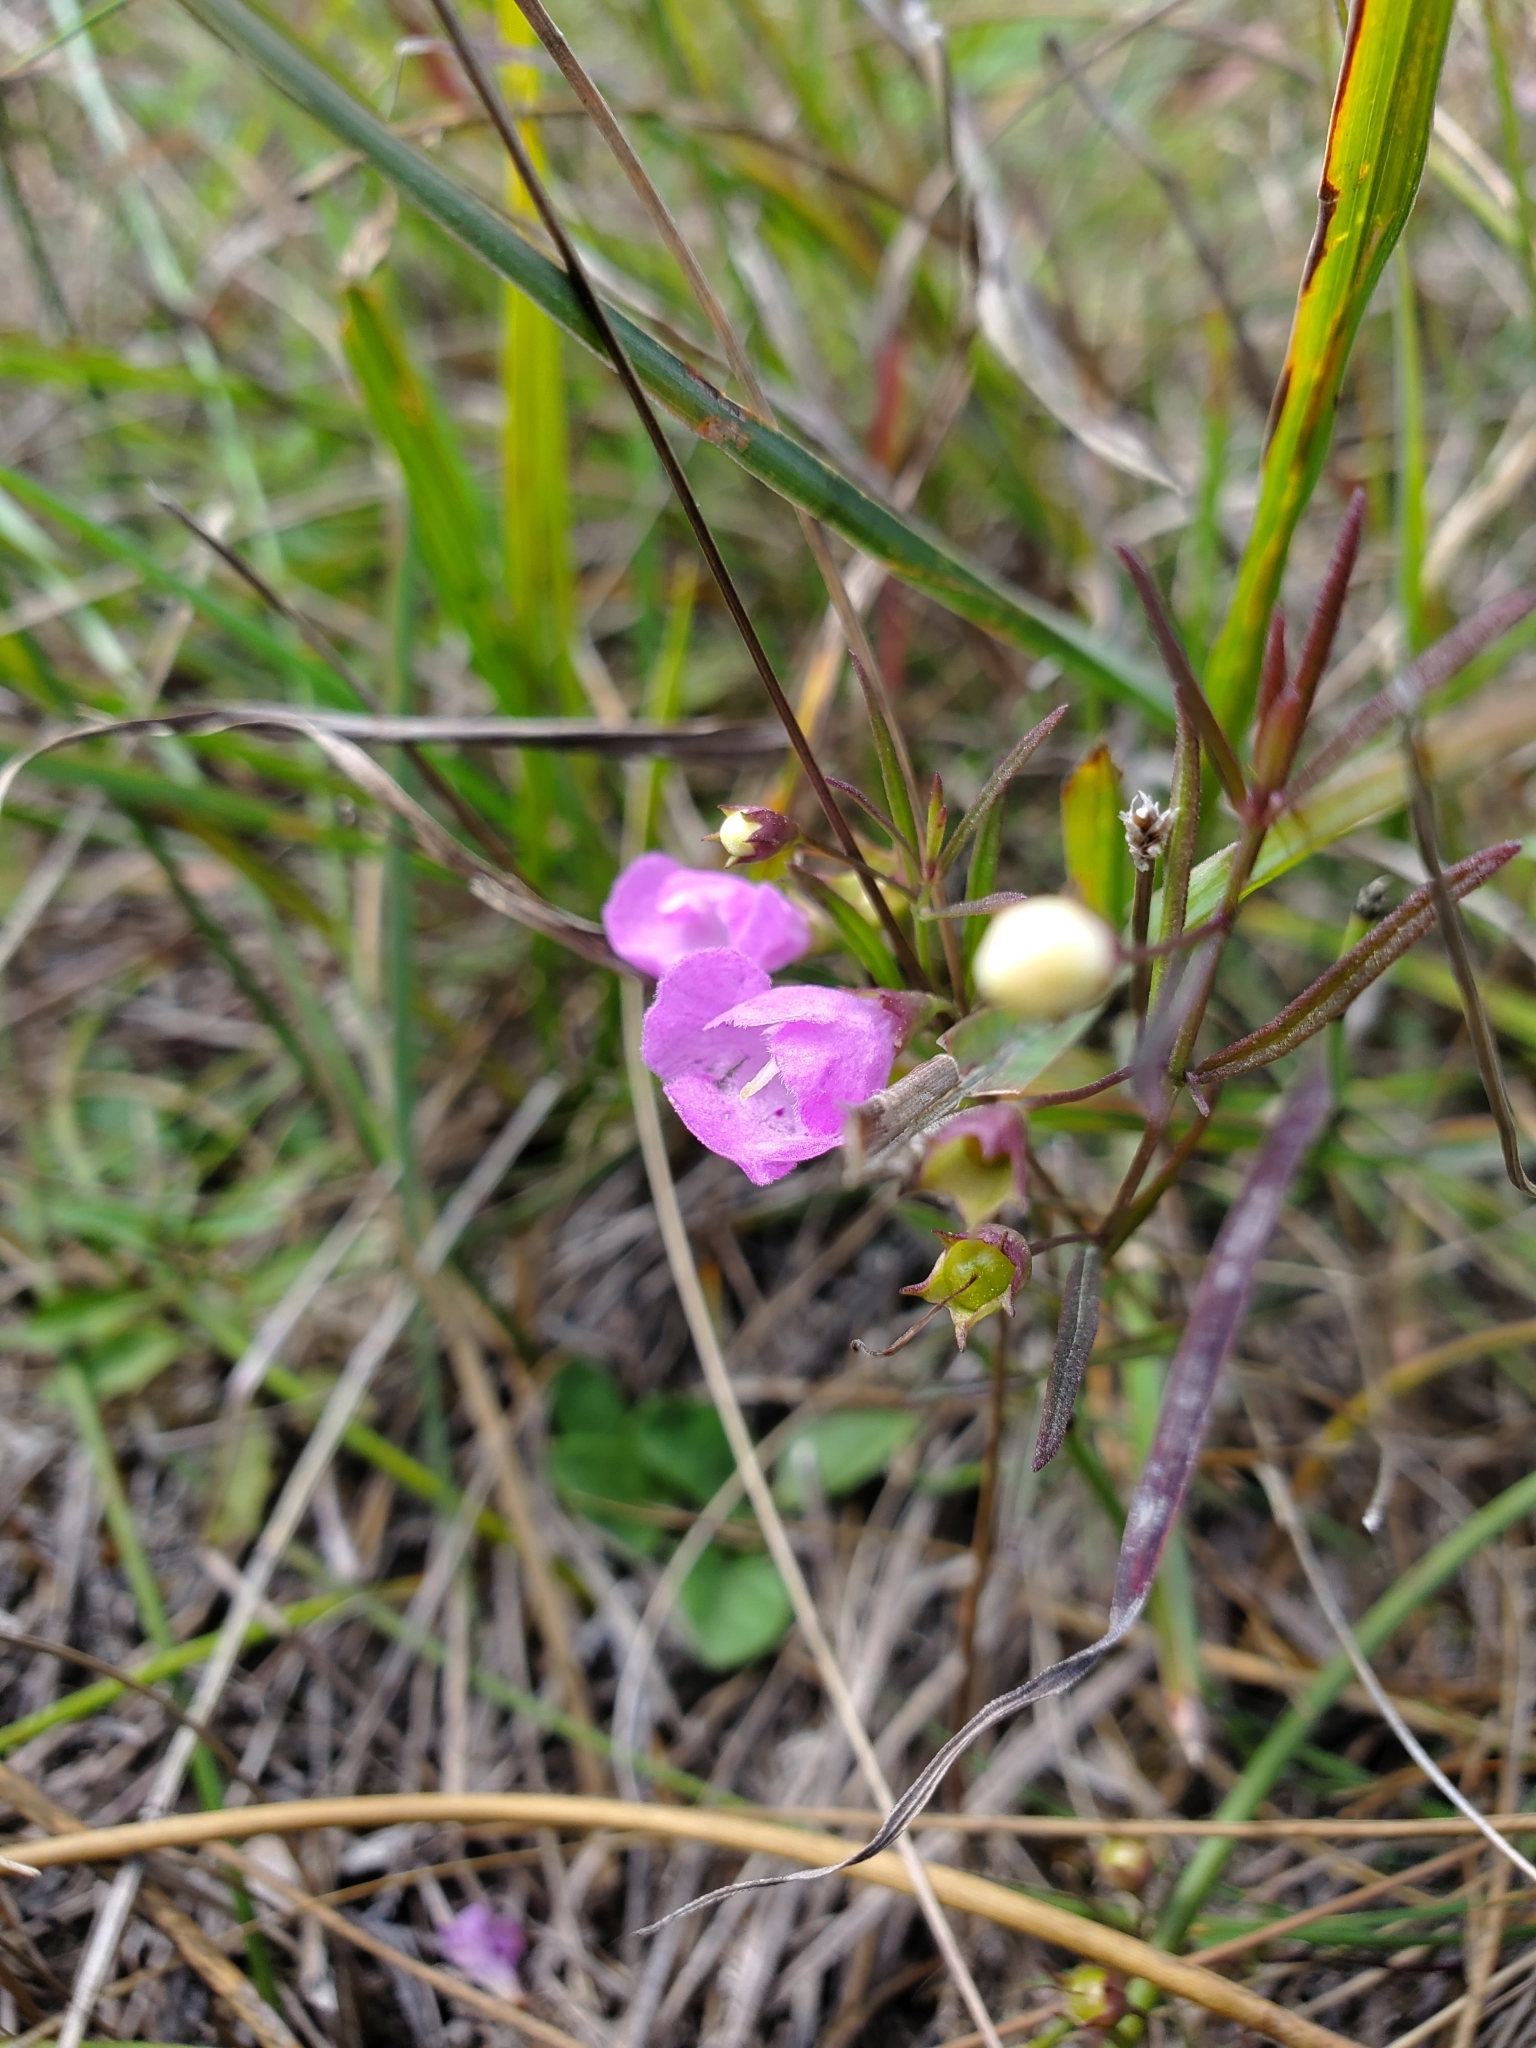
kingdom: Plantae
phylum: Tracheophyta
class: Magnoliopsida
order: Lamiales
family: Orobanchaceae
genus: Agalinis
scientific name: Agalinis tenuifolia
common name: Slender agalinis
